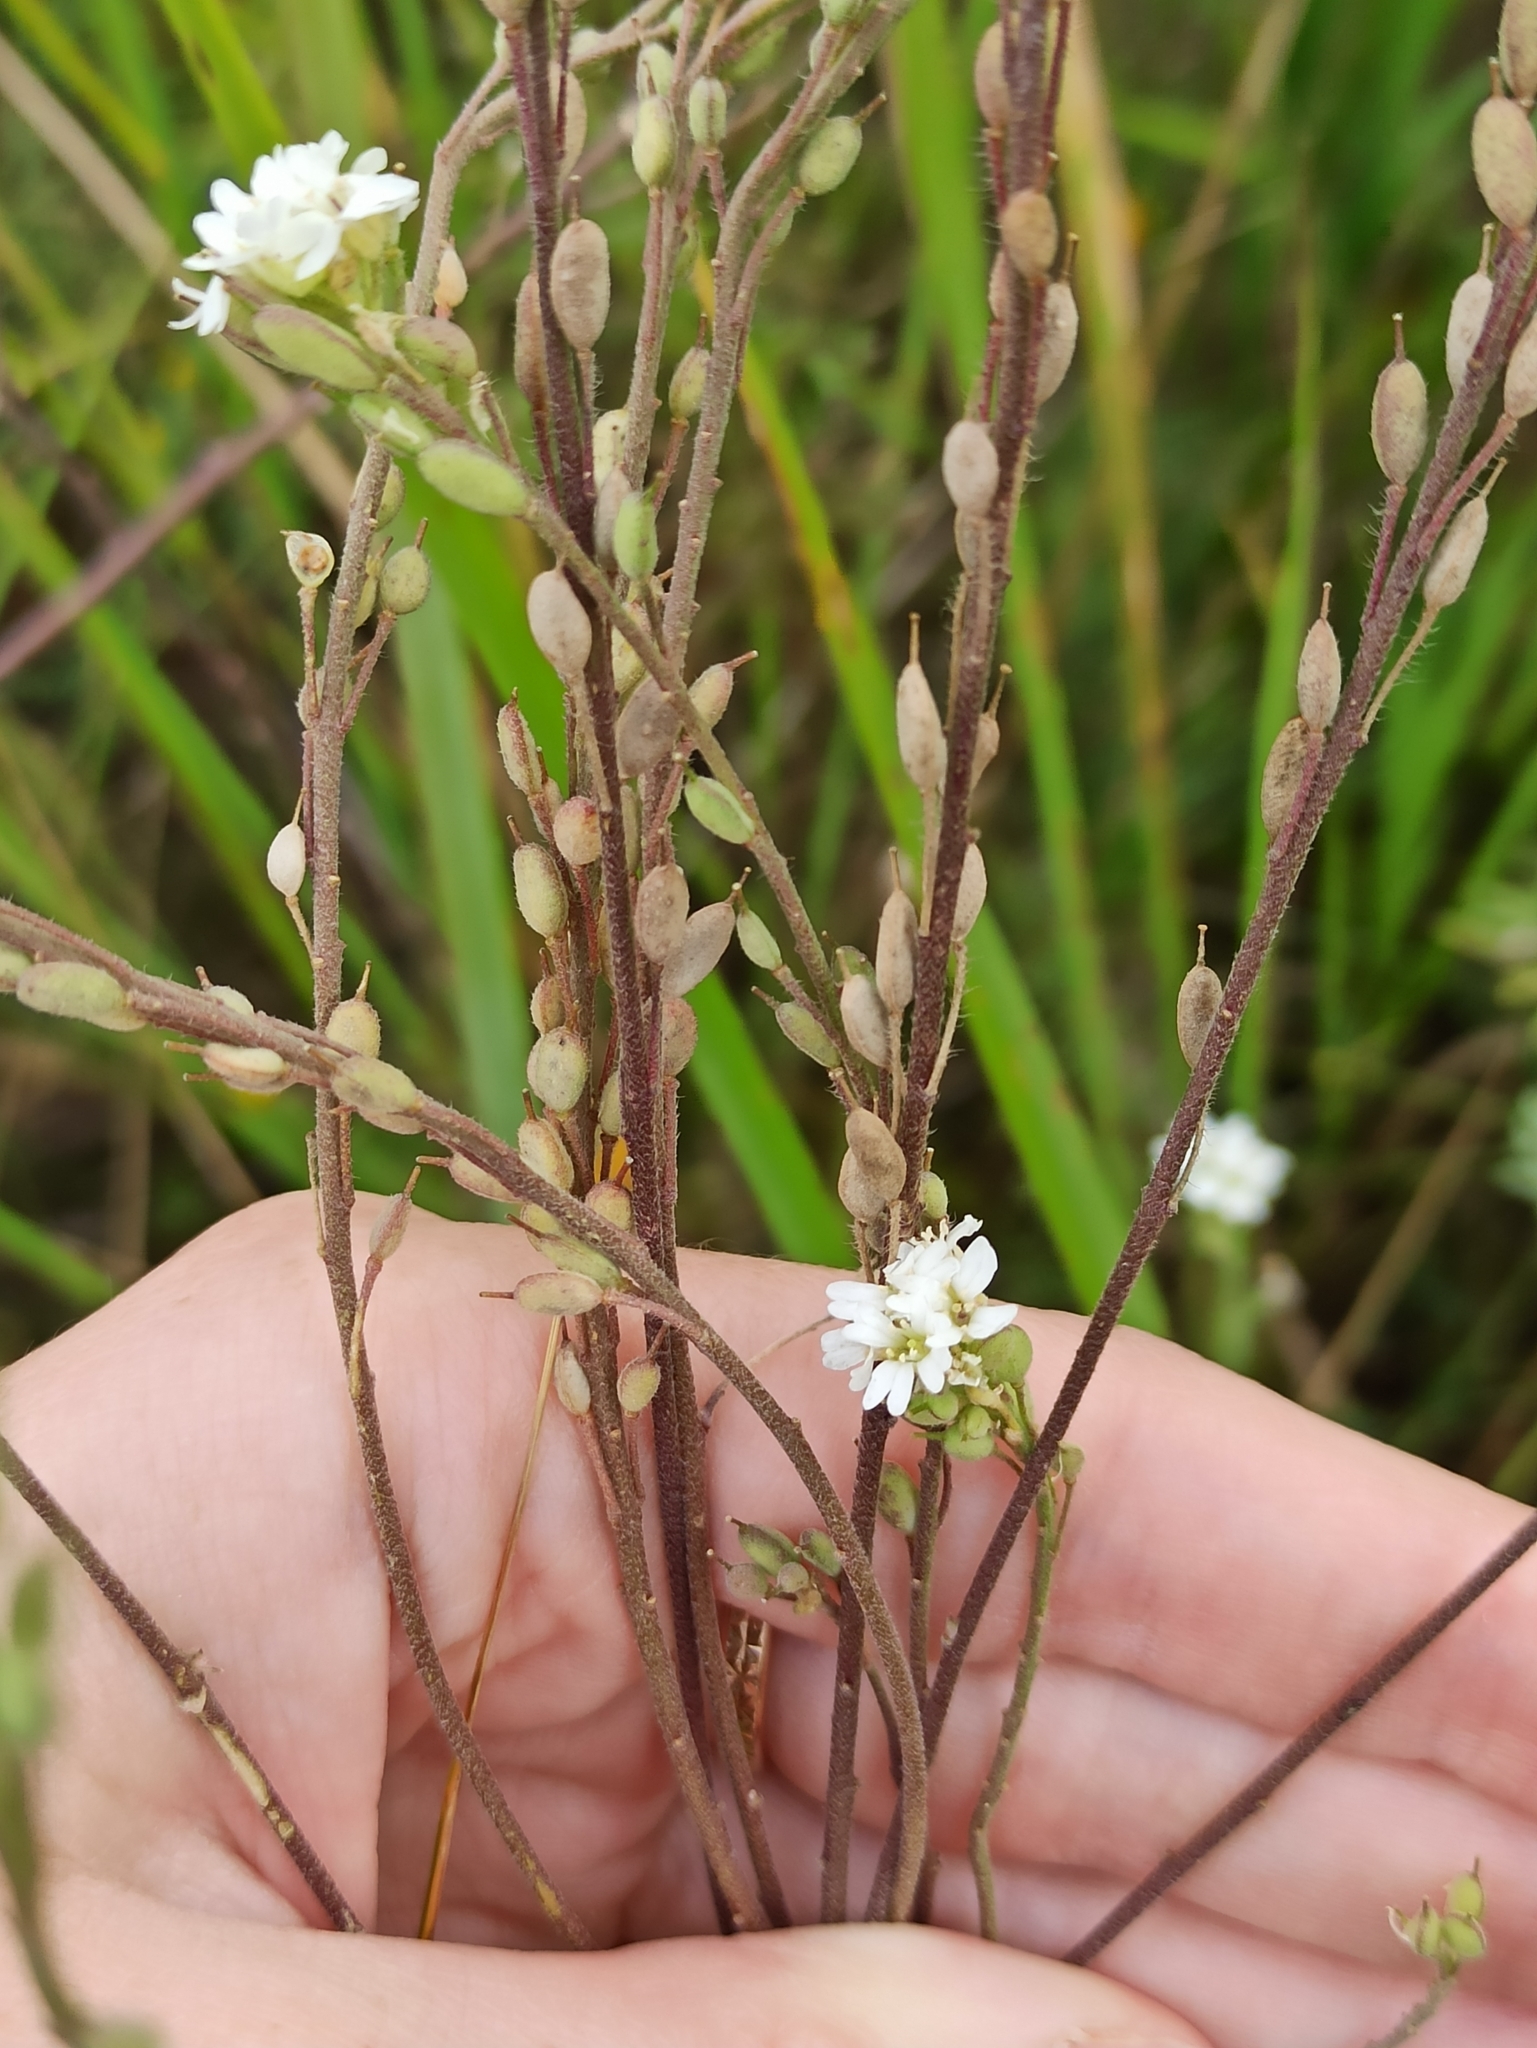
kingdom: Plantae
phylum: Tracheophyta
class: Magnoliopsida
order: Brassicales
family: Brassicaceae
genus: Berteroa
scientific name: Berteroa incana
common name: Hoary alison
